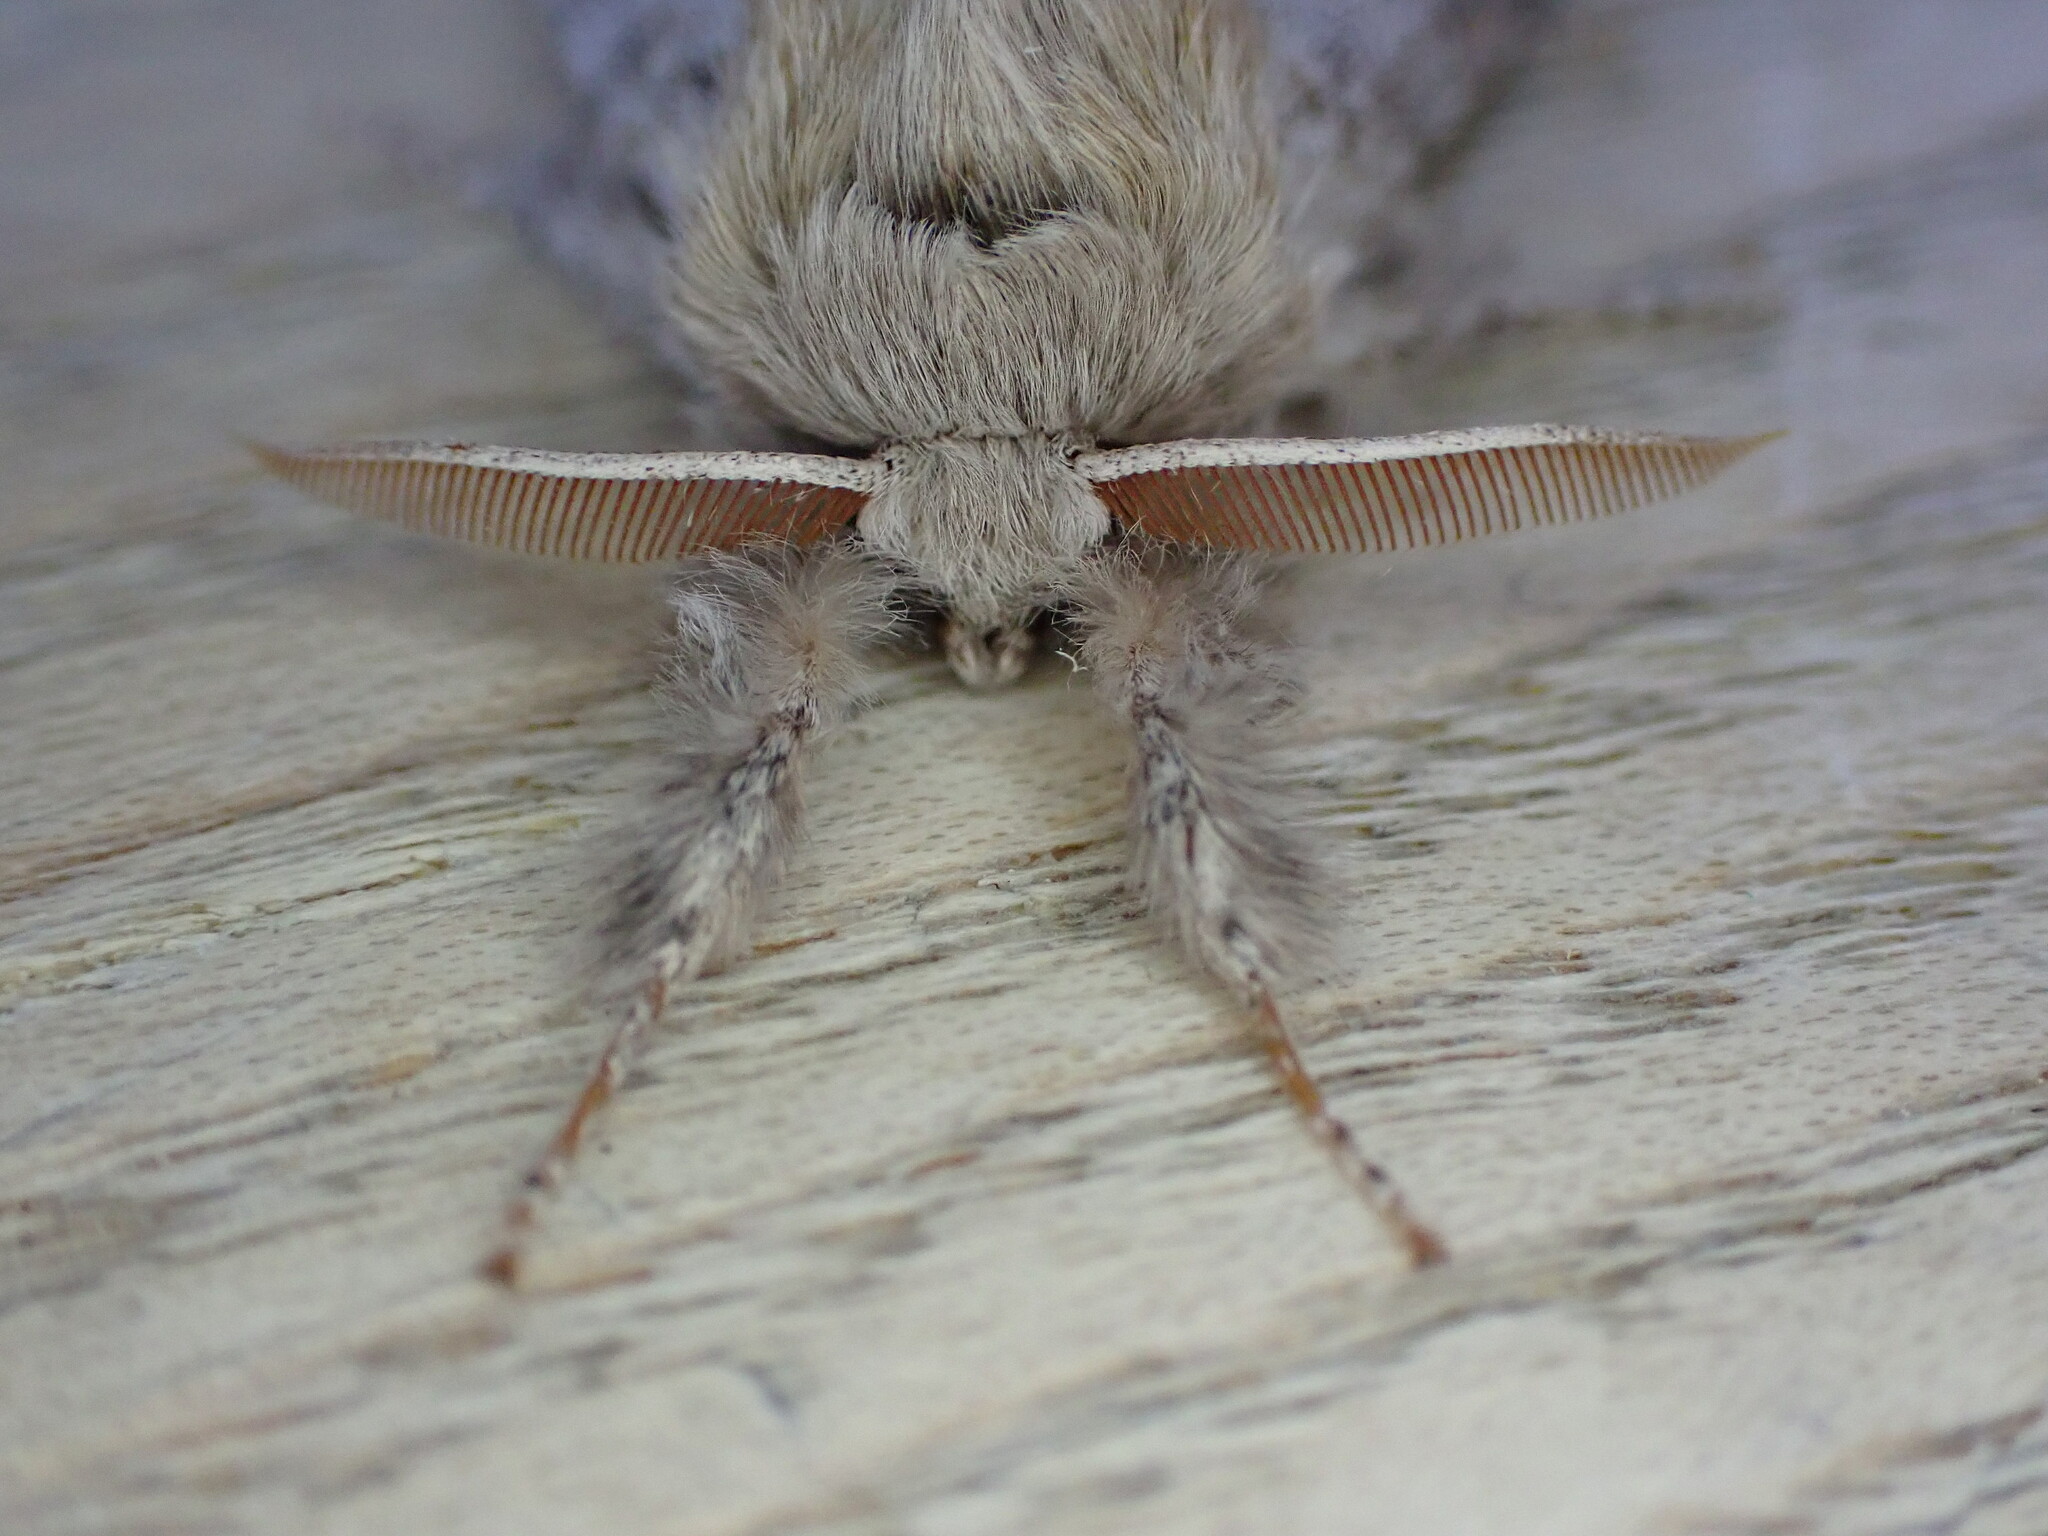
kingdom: Animalia
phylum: Arthropoda
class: Insecta
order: Lepidoptera
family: Erebidae
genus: Calliteara
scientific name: Calliteara pudibunda
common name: Pale tussock
